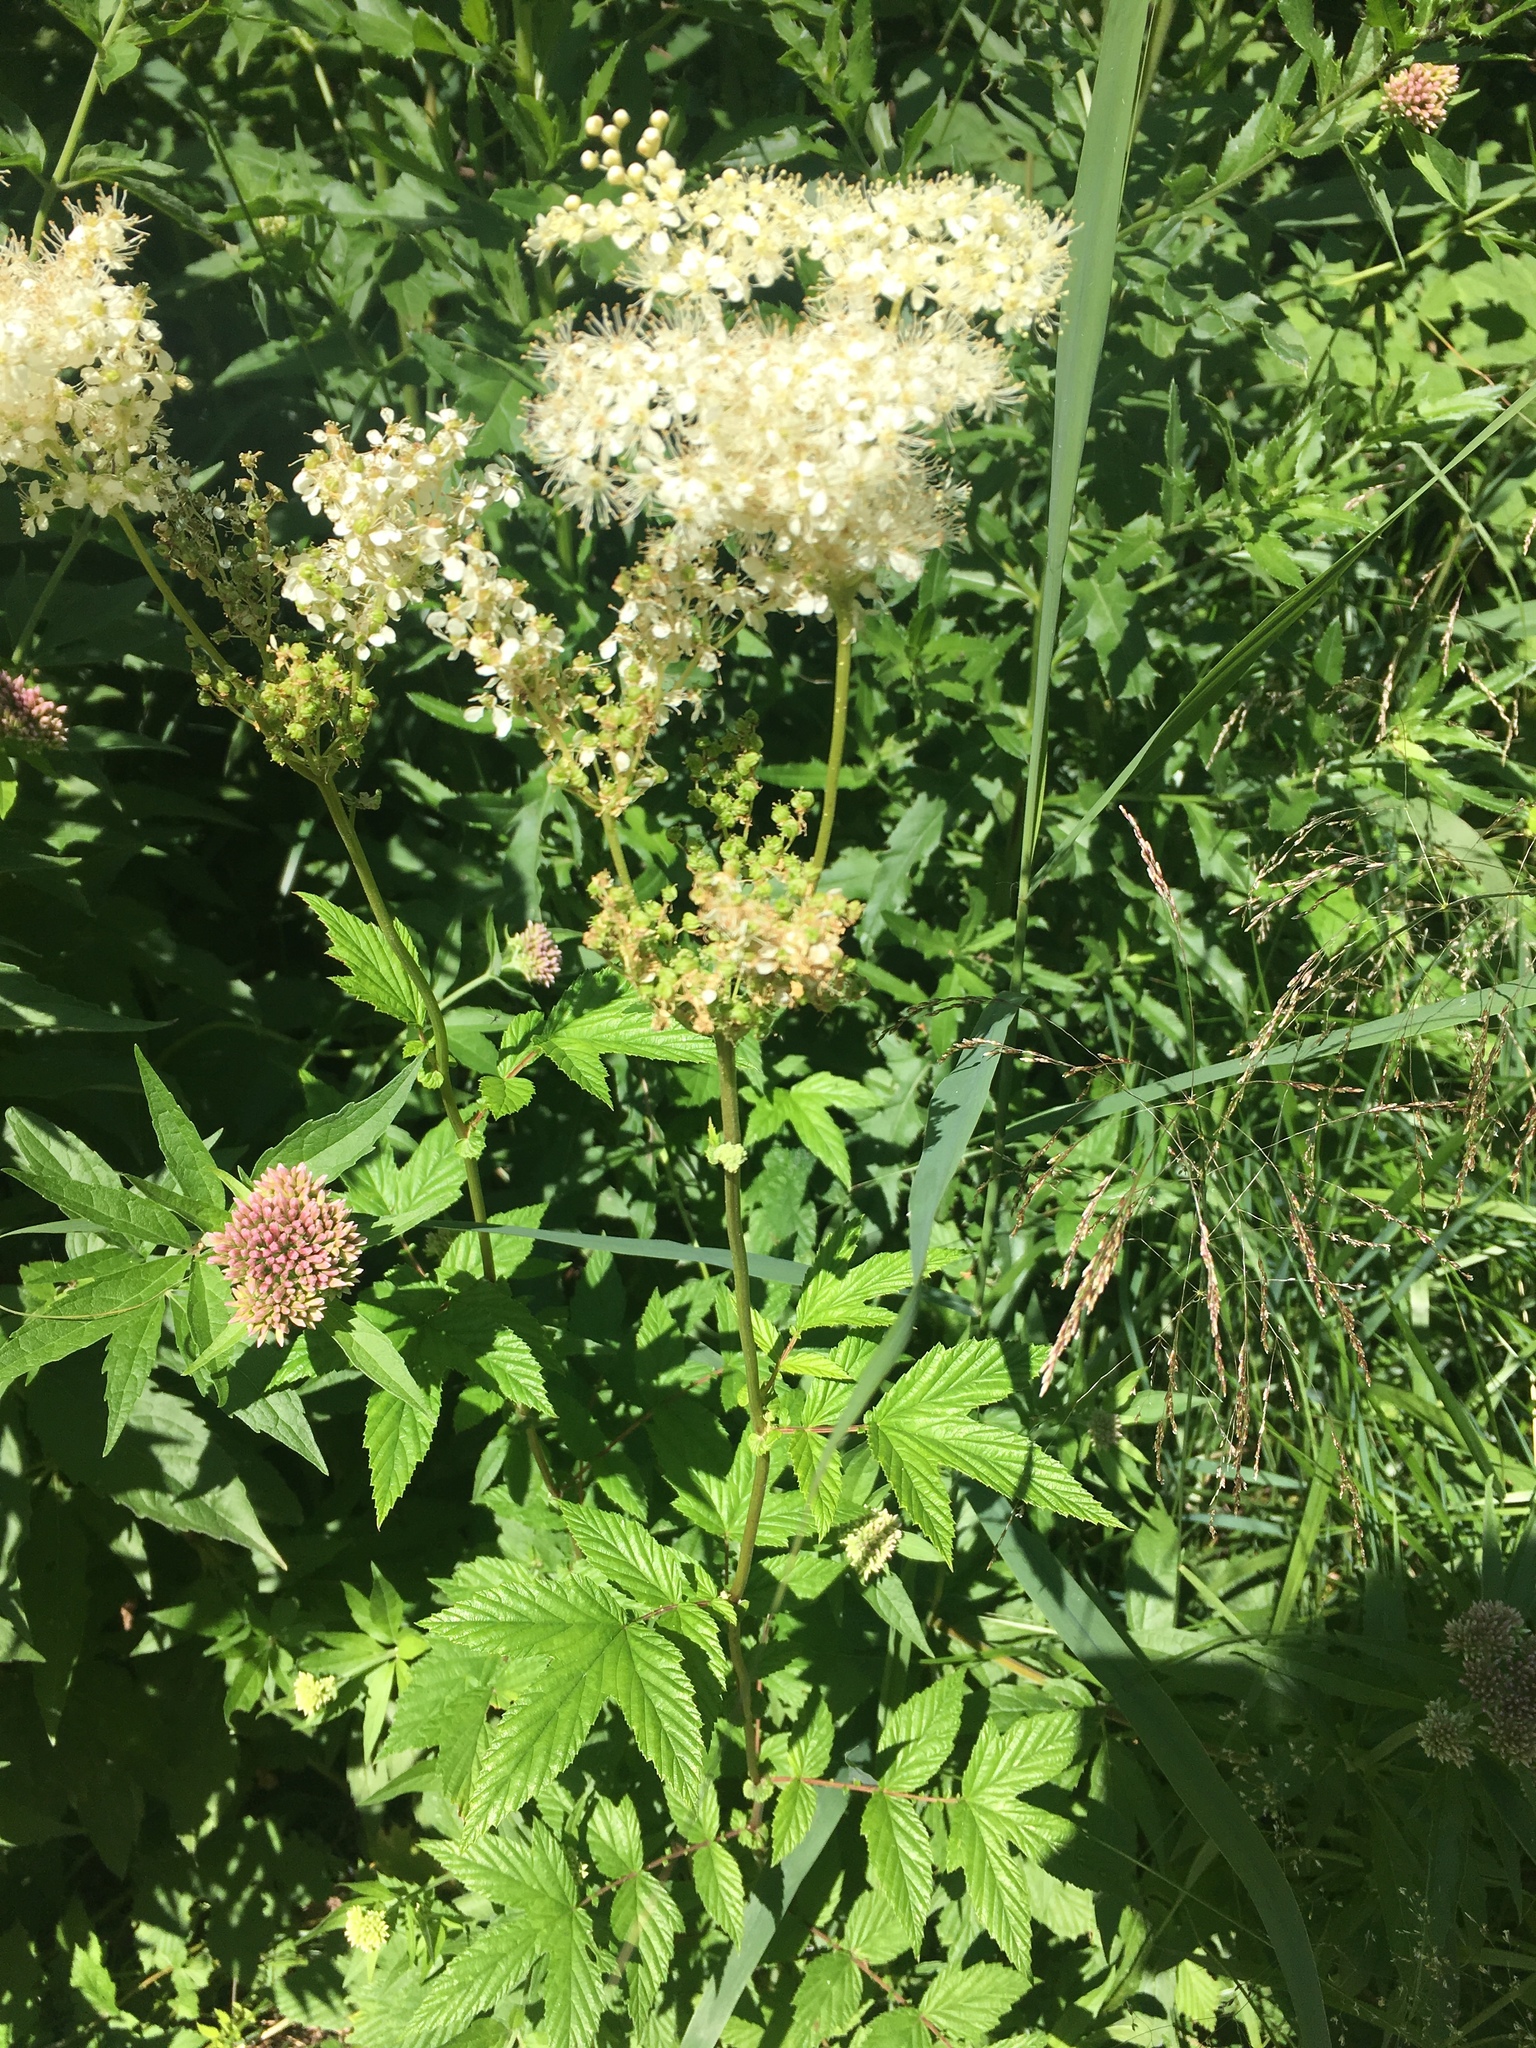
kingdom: Plantae
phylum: Tracheophyta
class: Magnoliopsida
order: Rosales
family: Rosaceae
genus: Filipendula
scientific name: Filipendula ulmaria
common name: Meadowsweet
